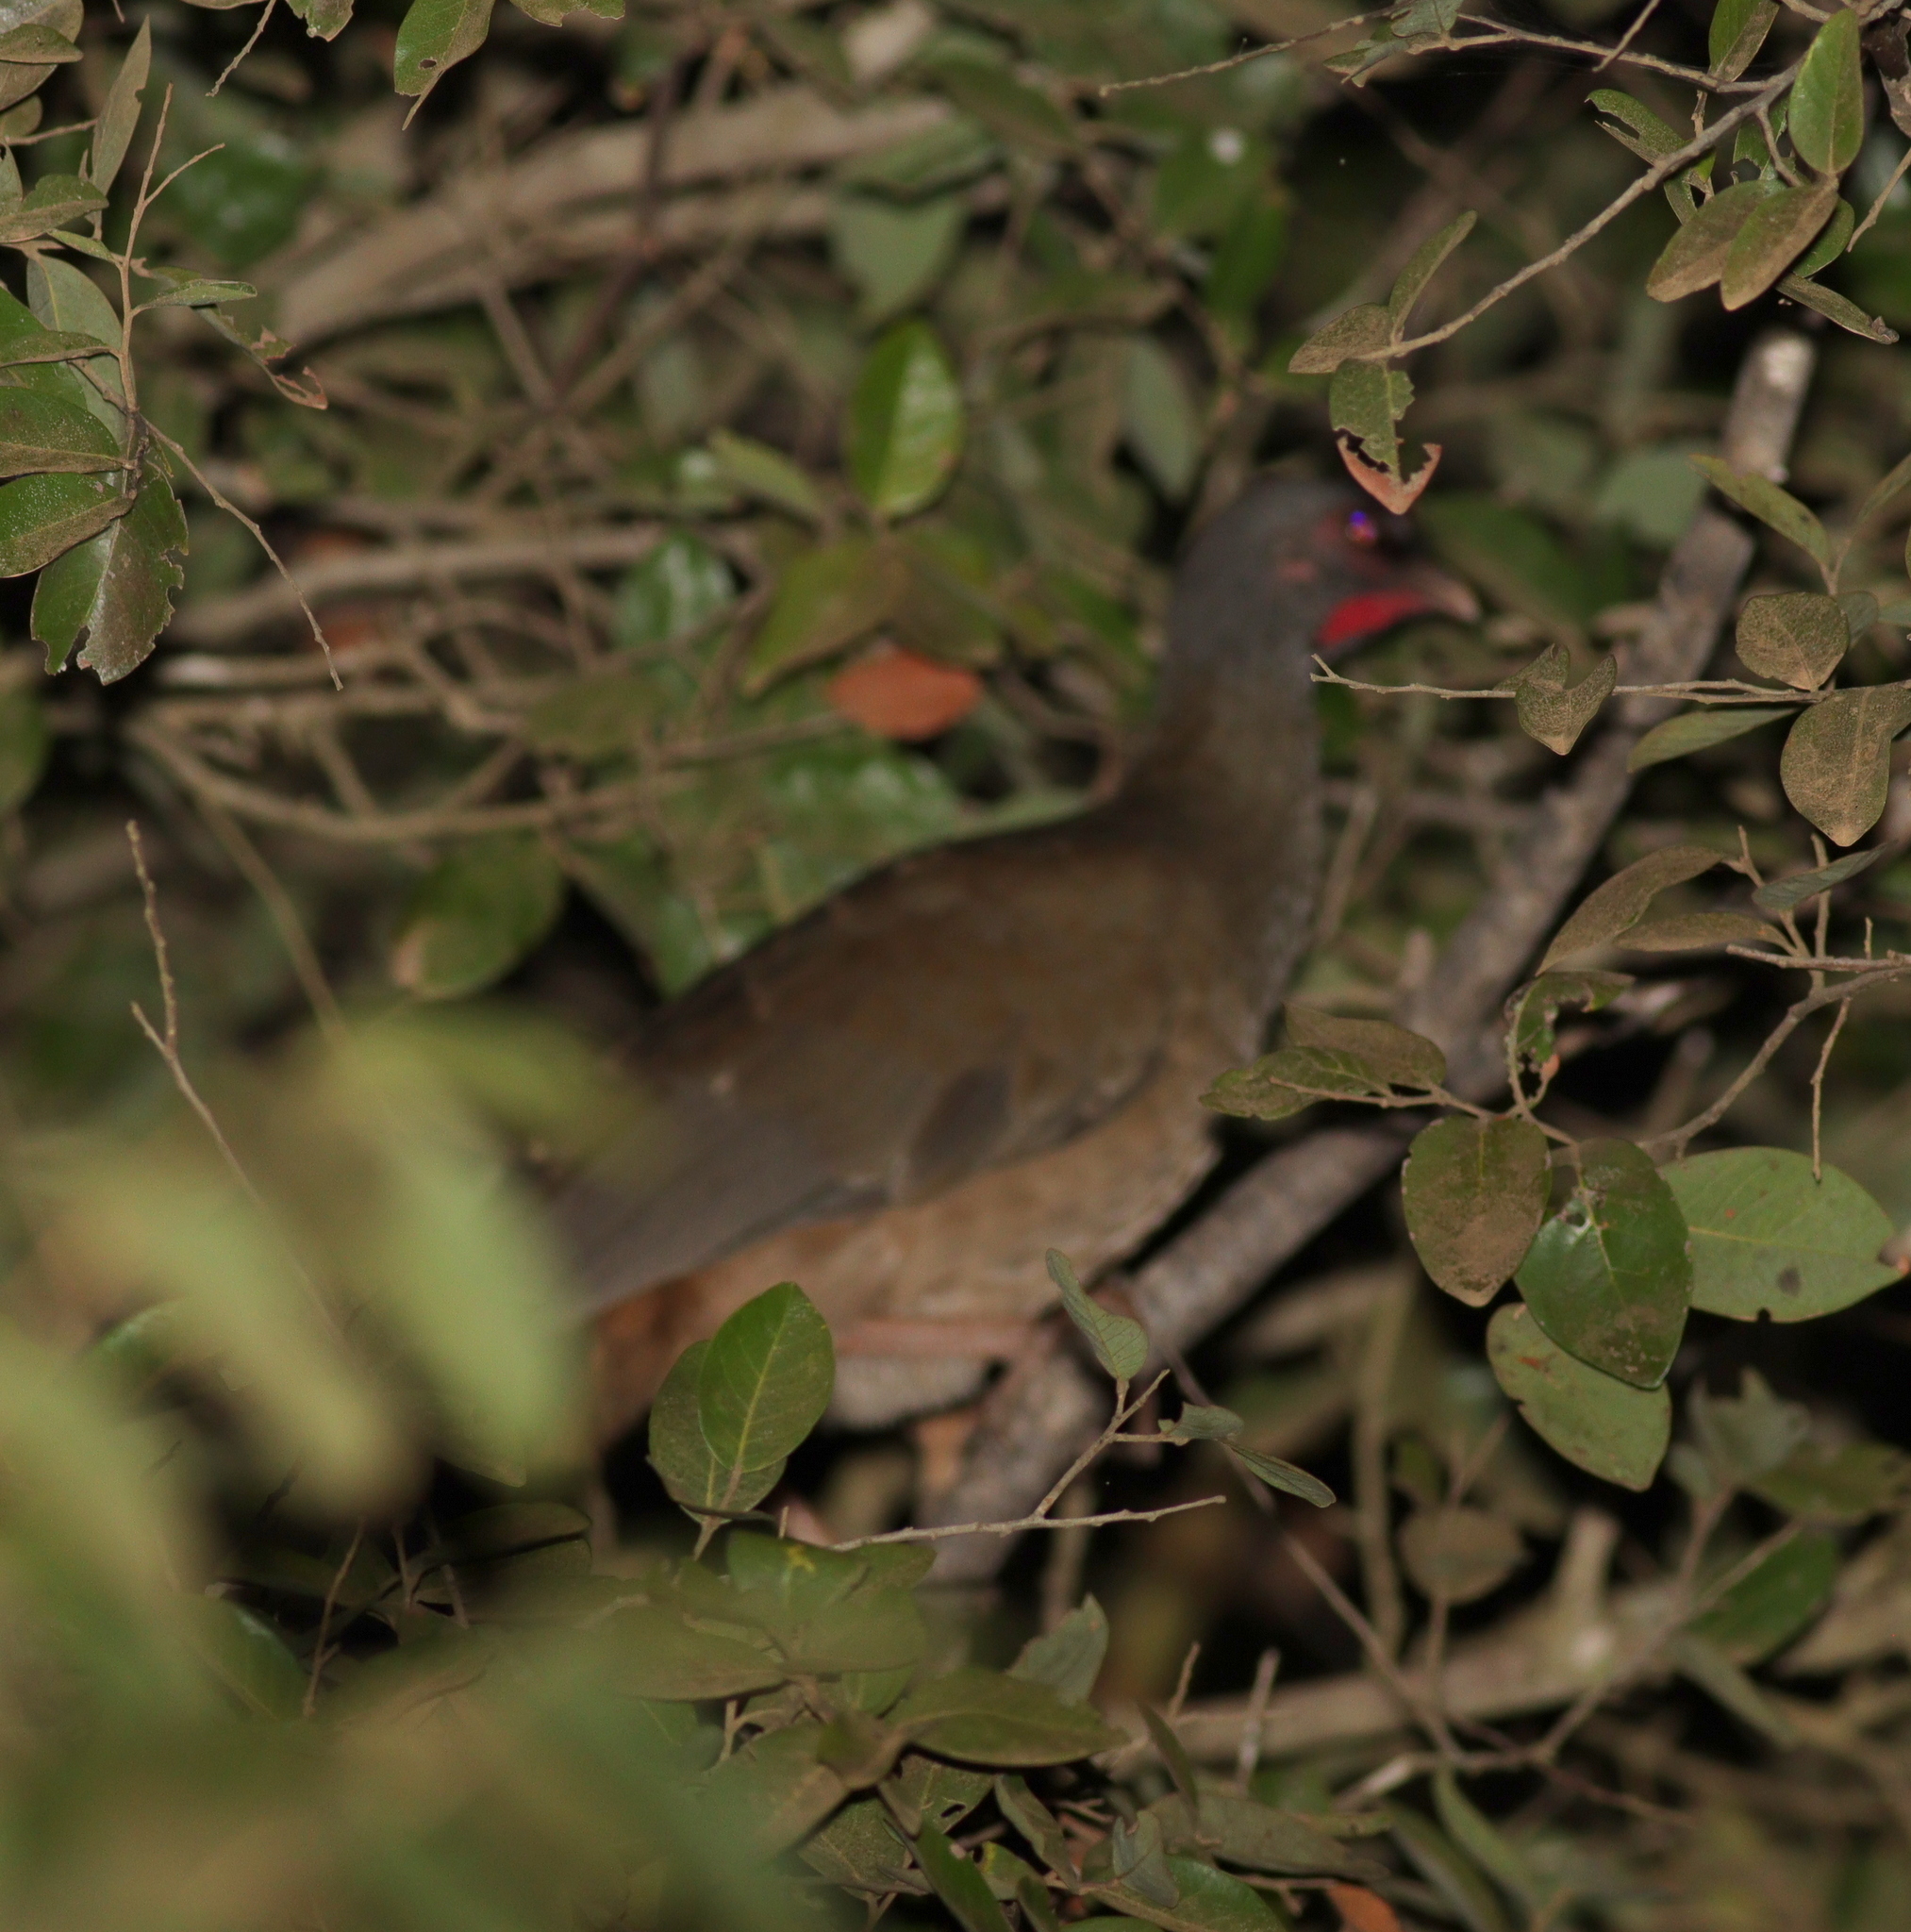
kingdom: Animalia
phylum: Chordata
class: Aves
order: Galliformes
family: Cracidae
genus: Ortalis
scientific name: Ortalis canicollis
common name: Chaco chachalaca
